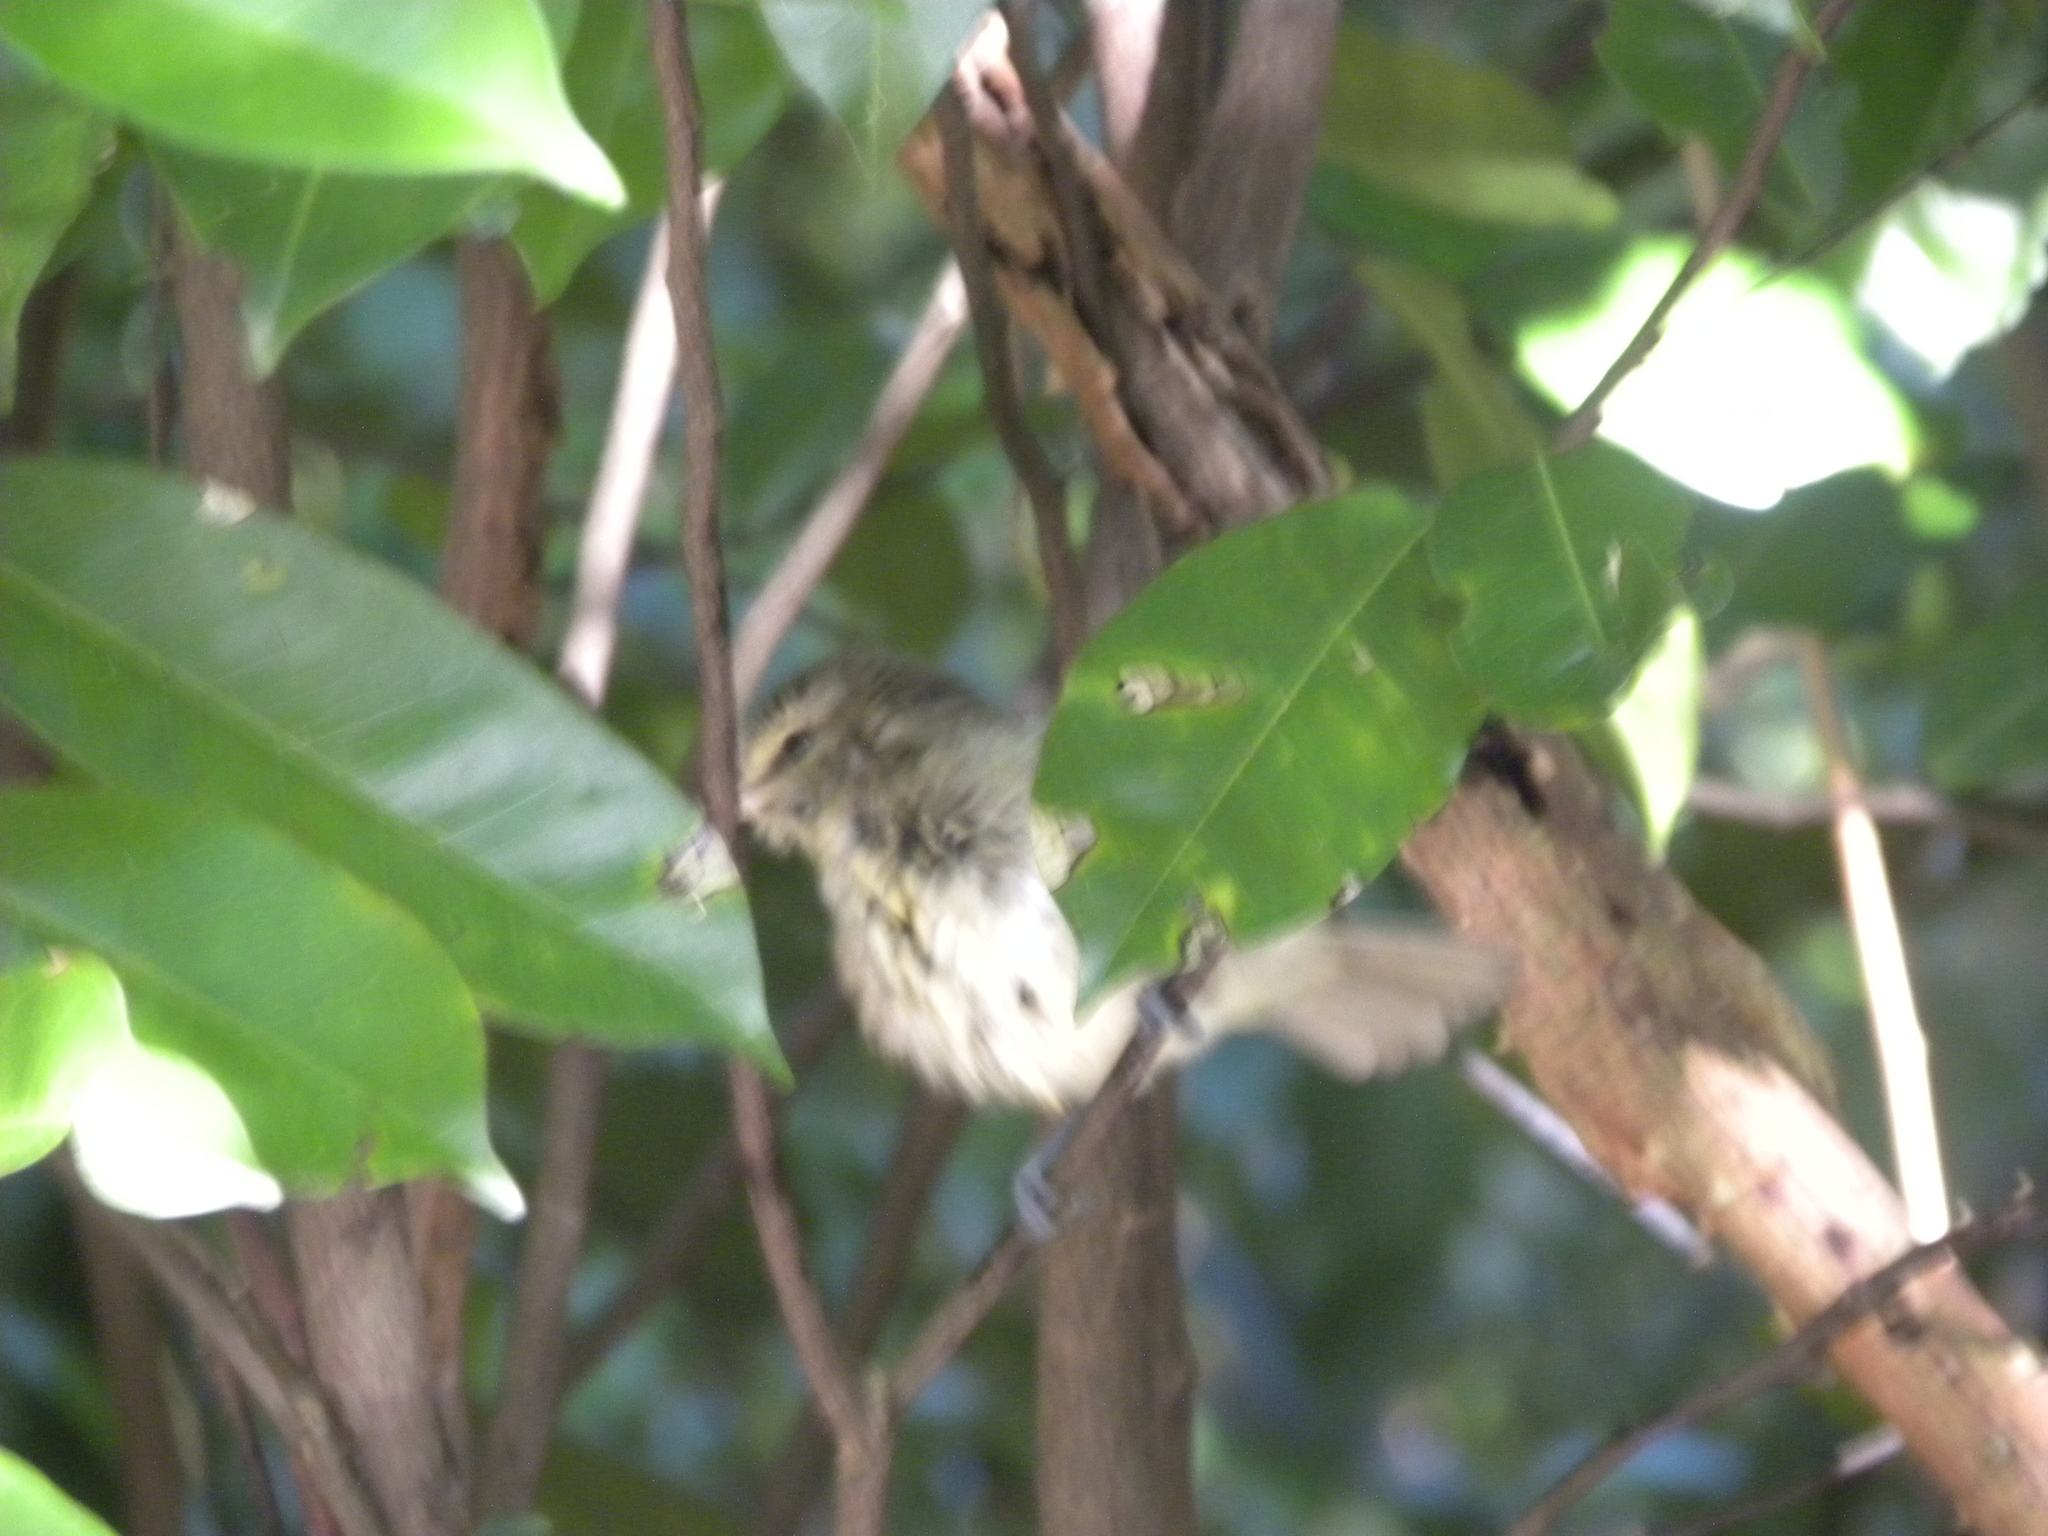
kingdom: Animalia
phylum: Chordata
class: Aves
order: Passeriformes
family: Vireonidae
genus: Vireo
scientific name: Vireo magister
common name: Yucatan vireo
